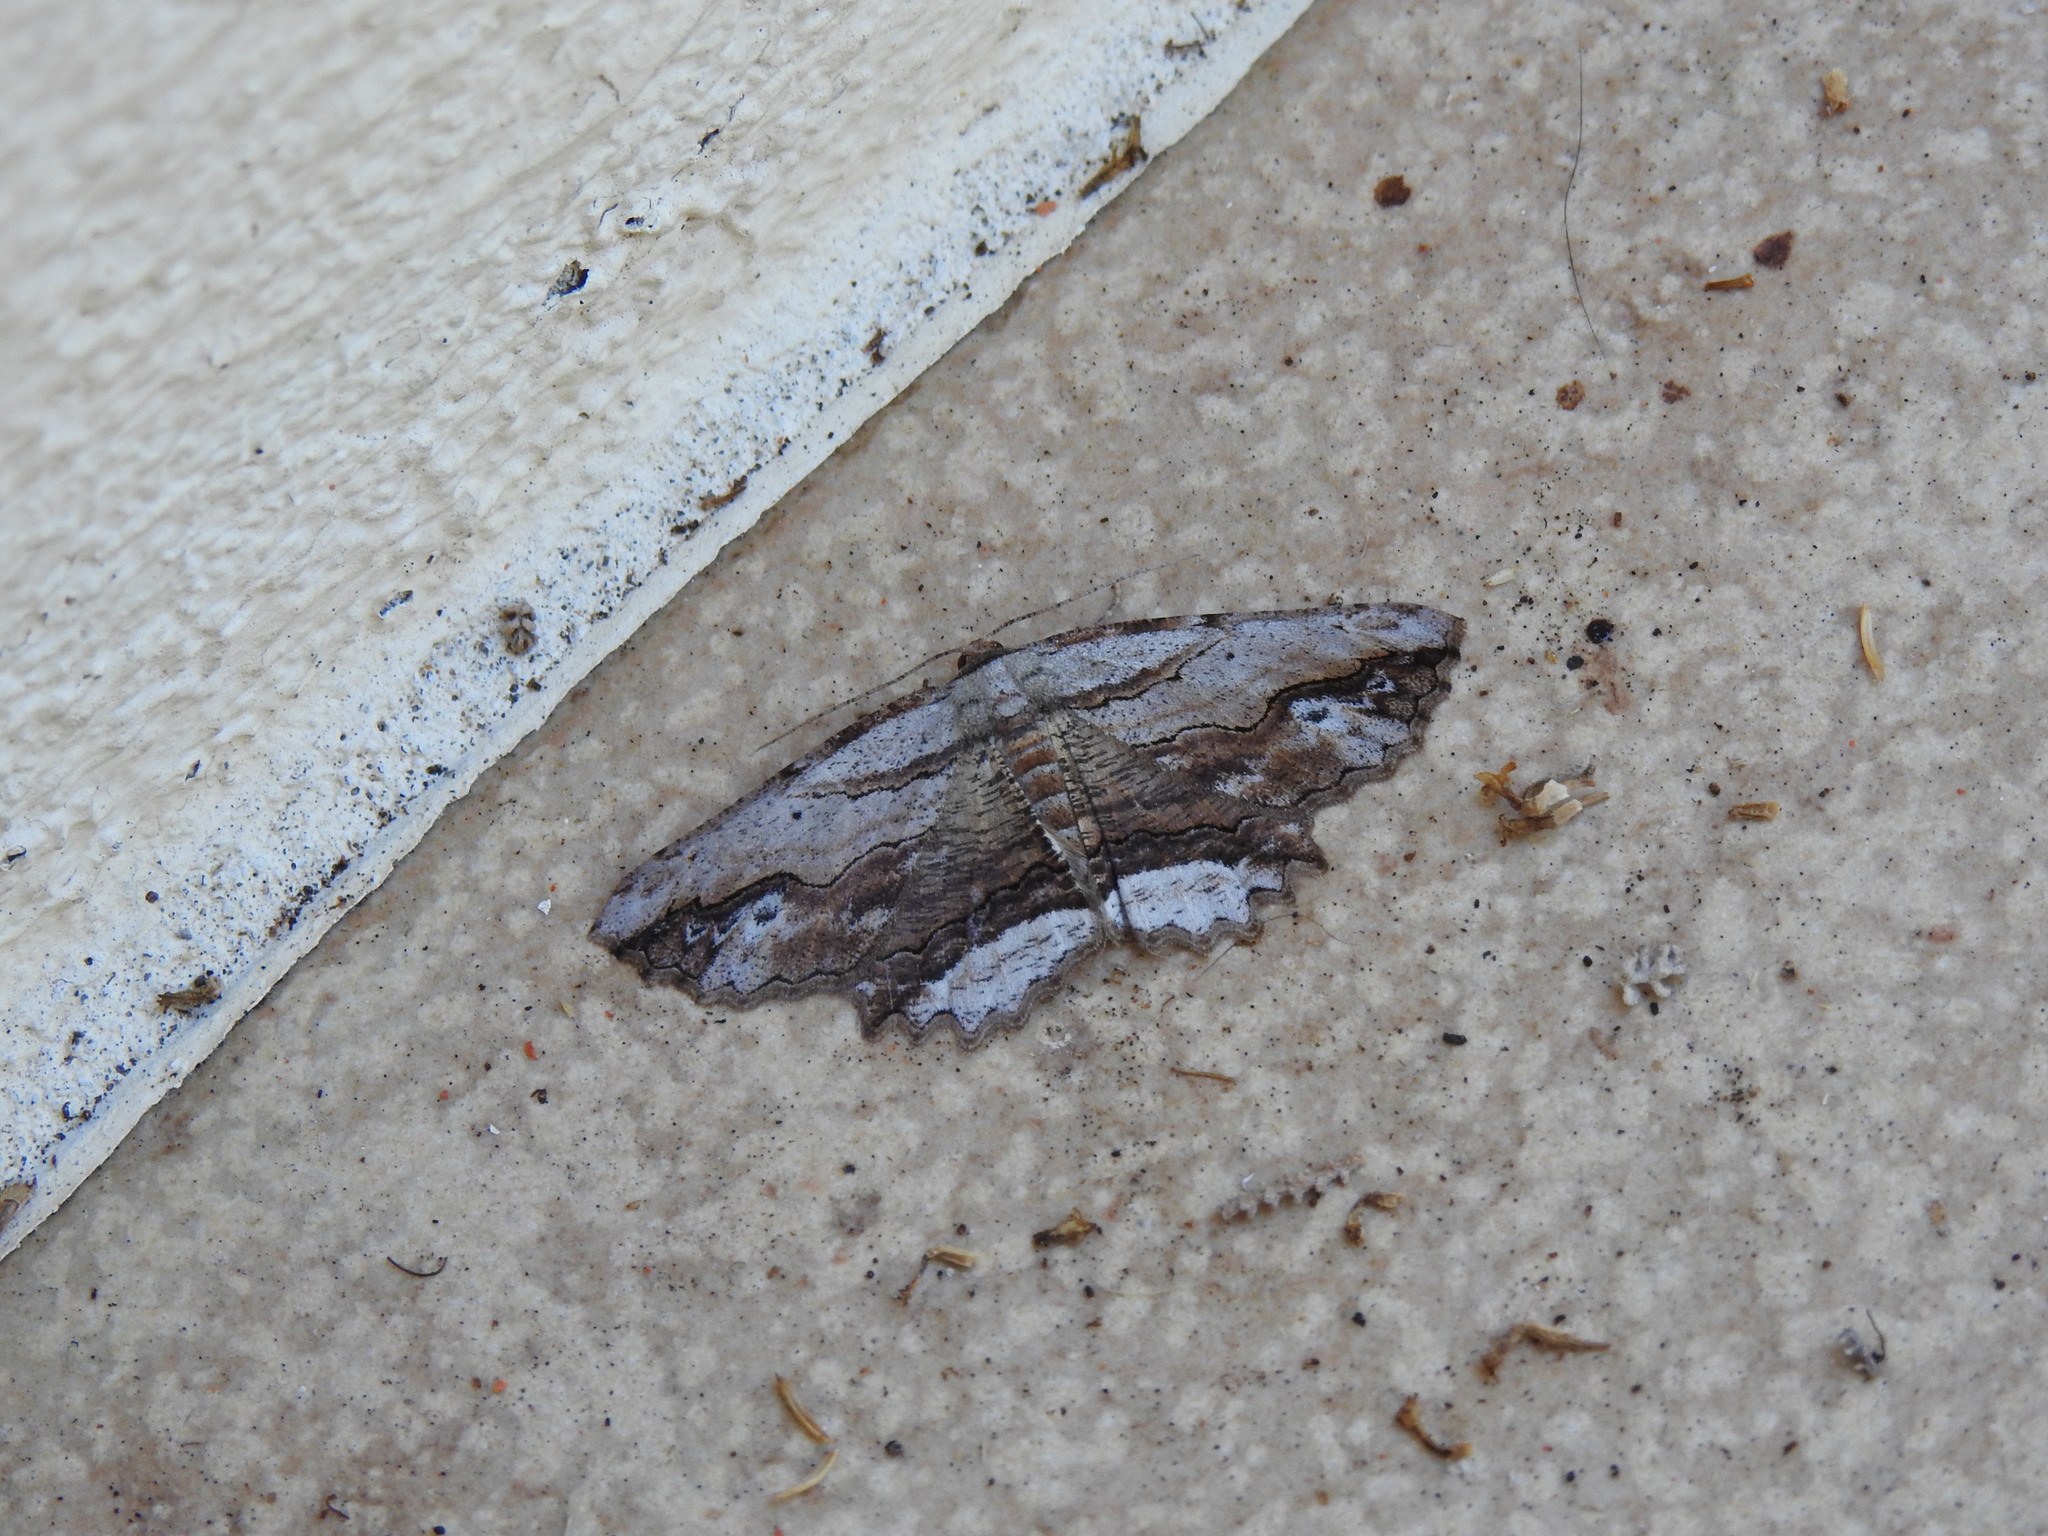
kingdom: Animalia
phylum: Arthropoda
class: Insecta
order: Lepidoptera
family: Geometridae
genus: Menophra
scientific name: Menophra abruptaria
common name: Waved umber
